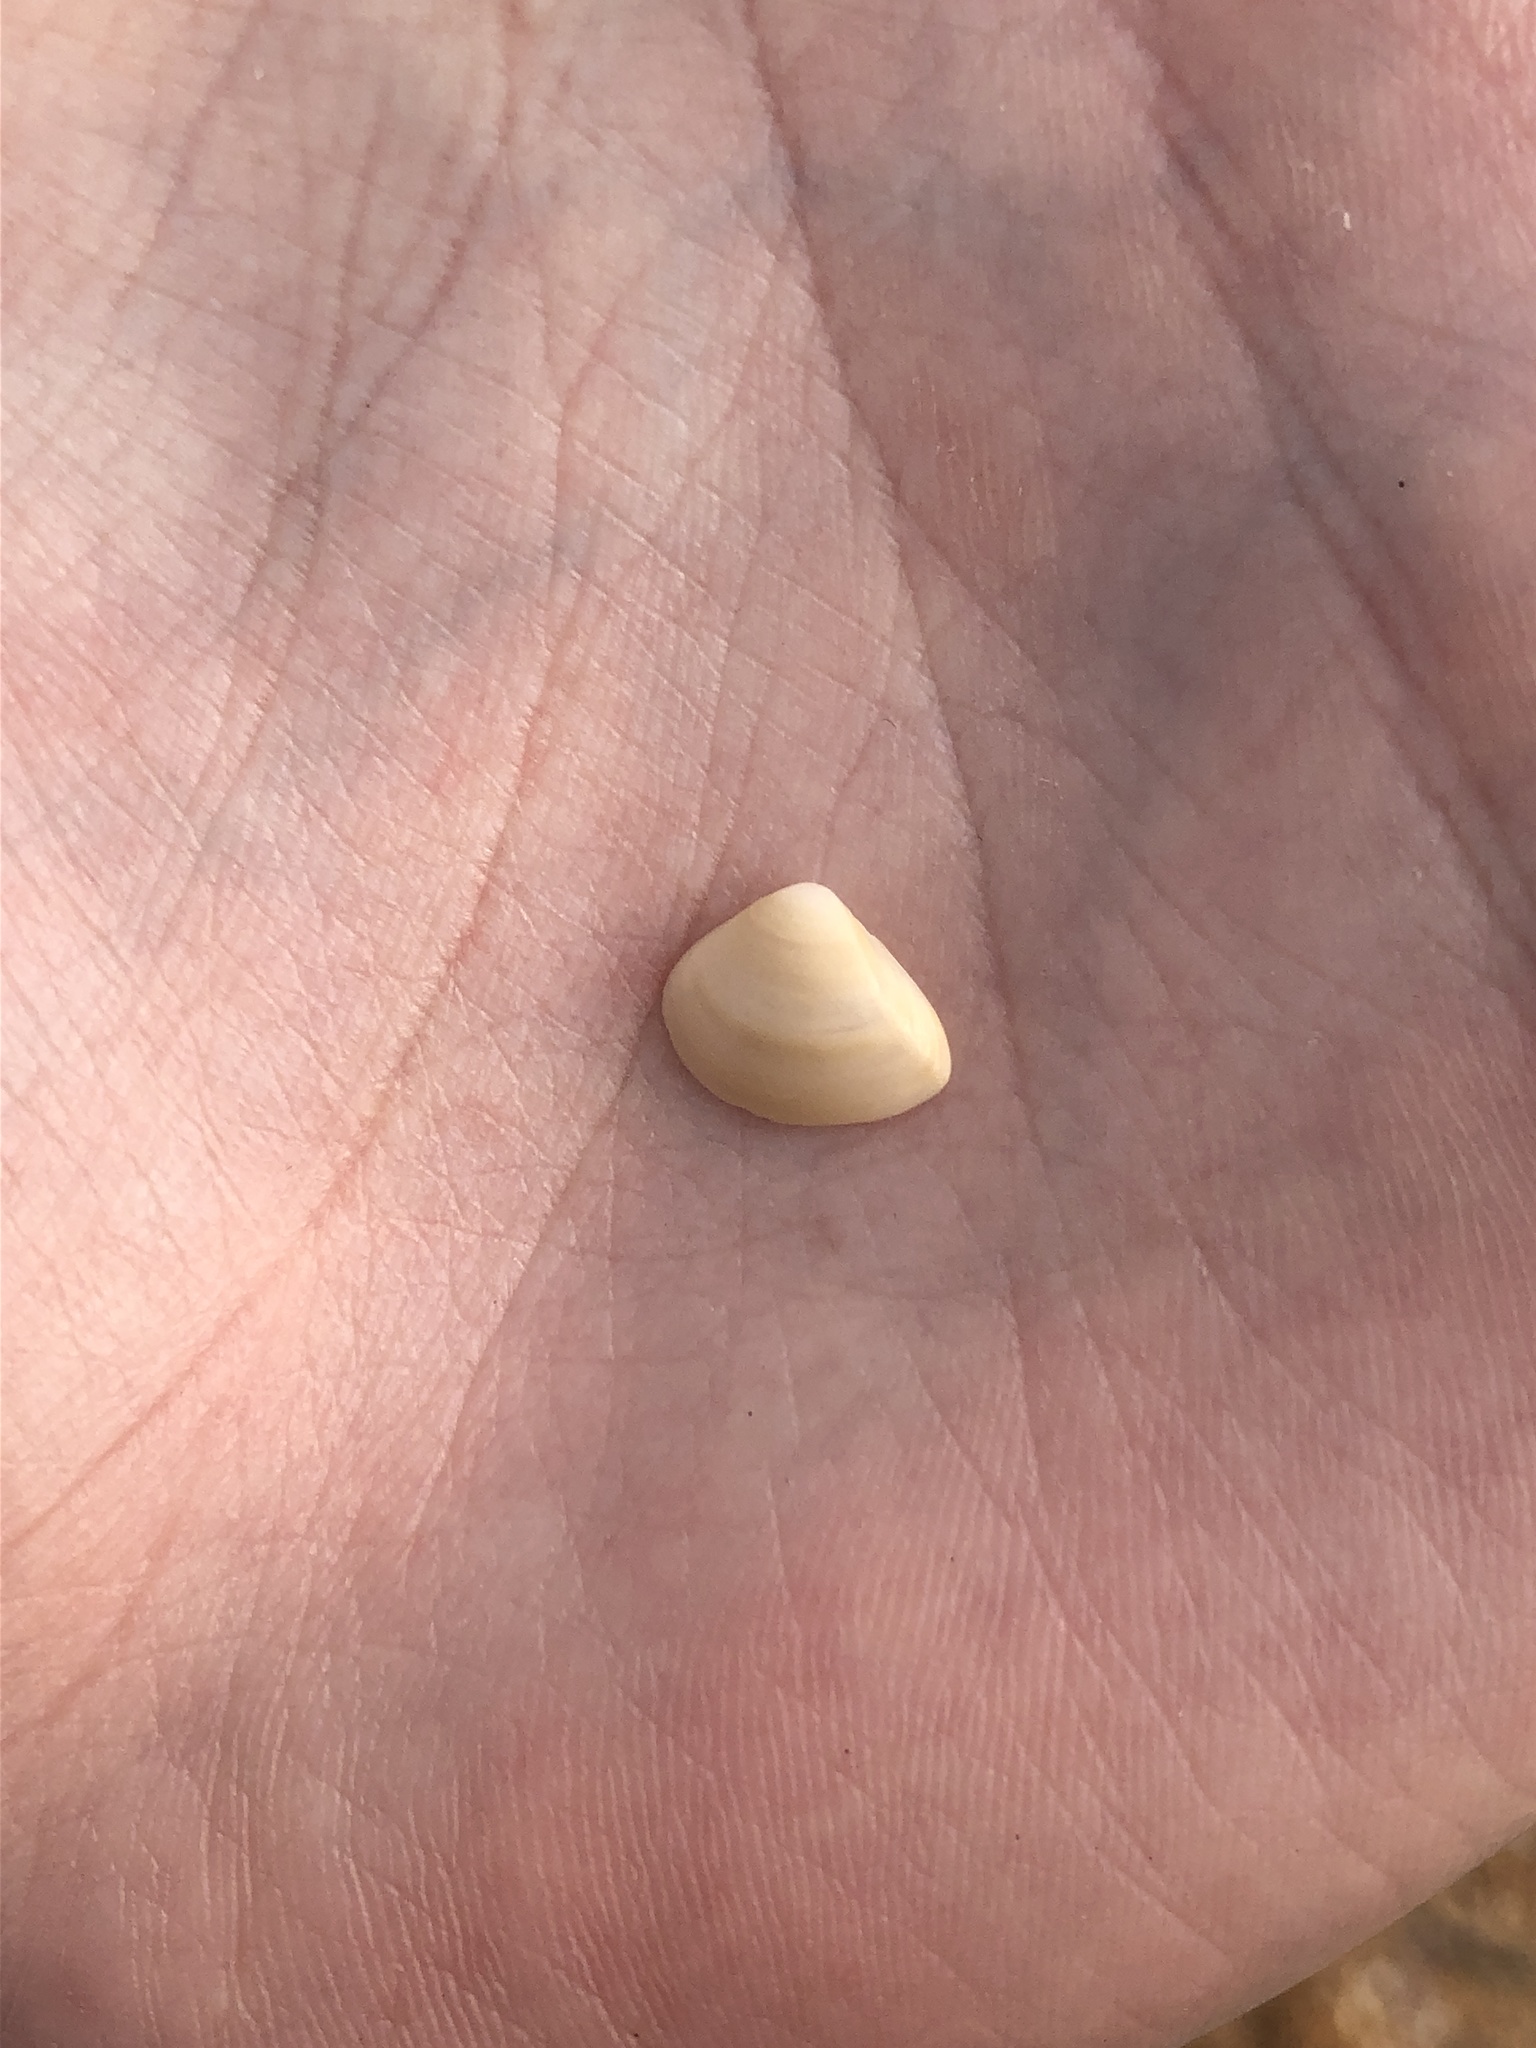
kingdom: Animalia
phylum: Mollusca
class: Bivalvia
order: Venerida
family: Mactridae
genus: Mulinia
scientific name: Mulinia lateralis
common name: Dwarf surfclam
